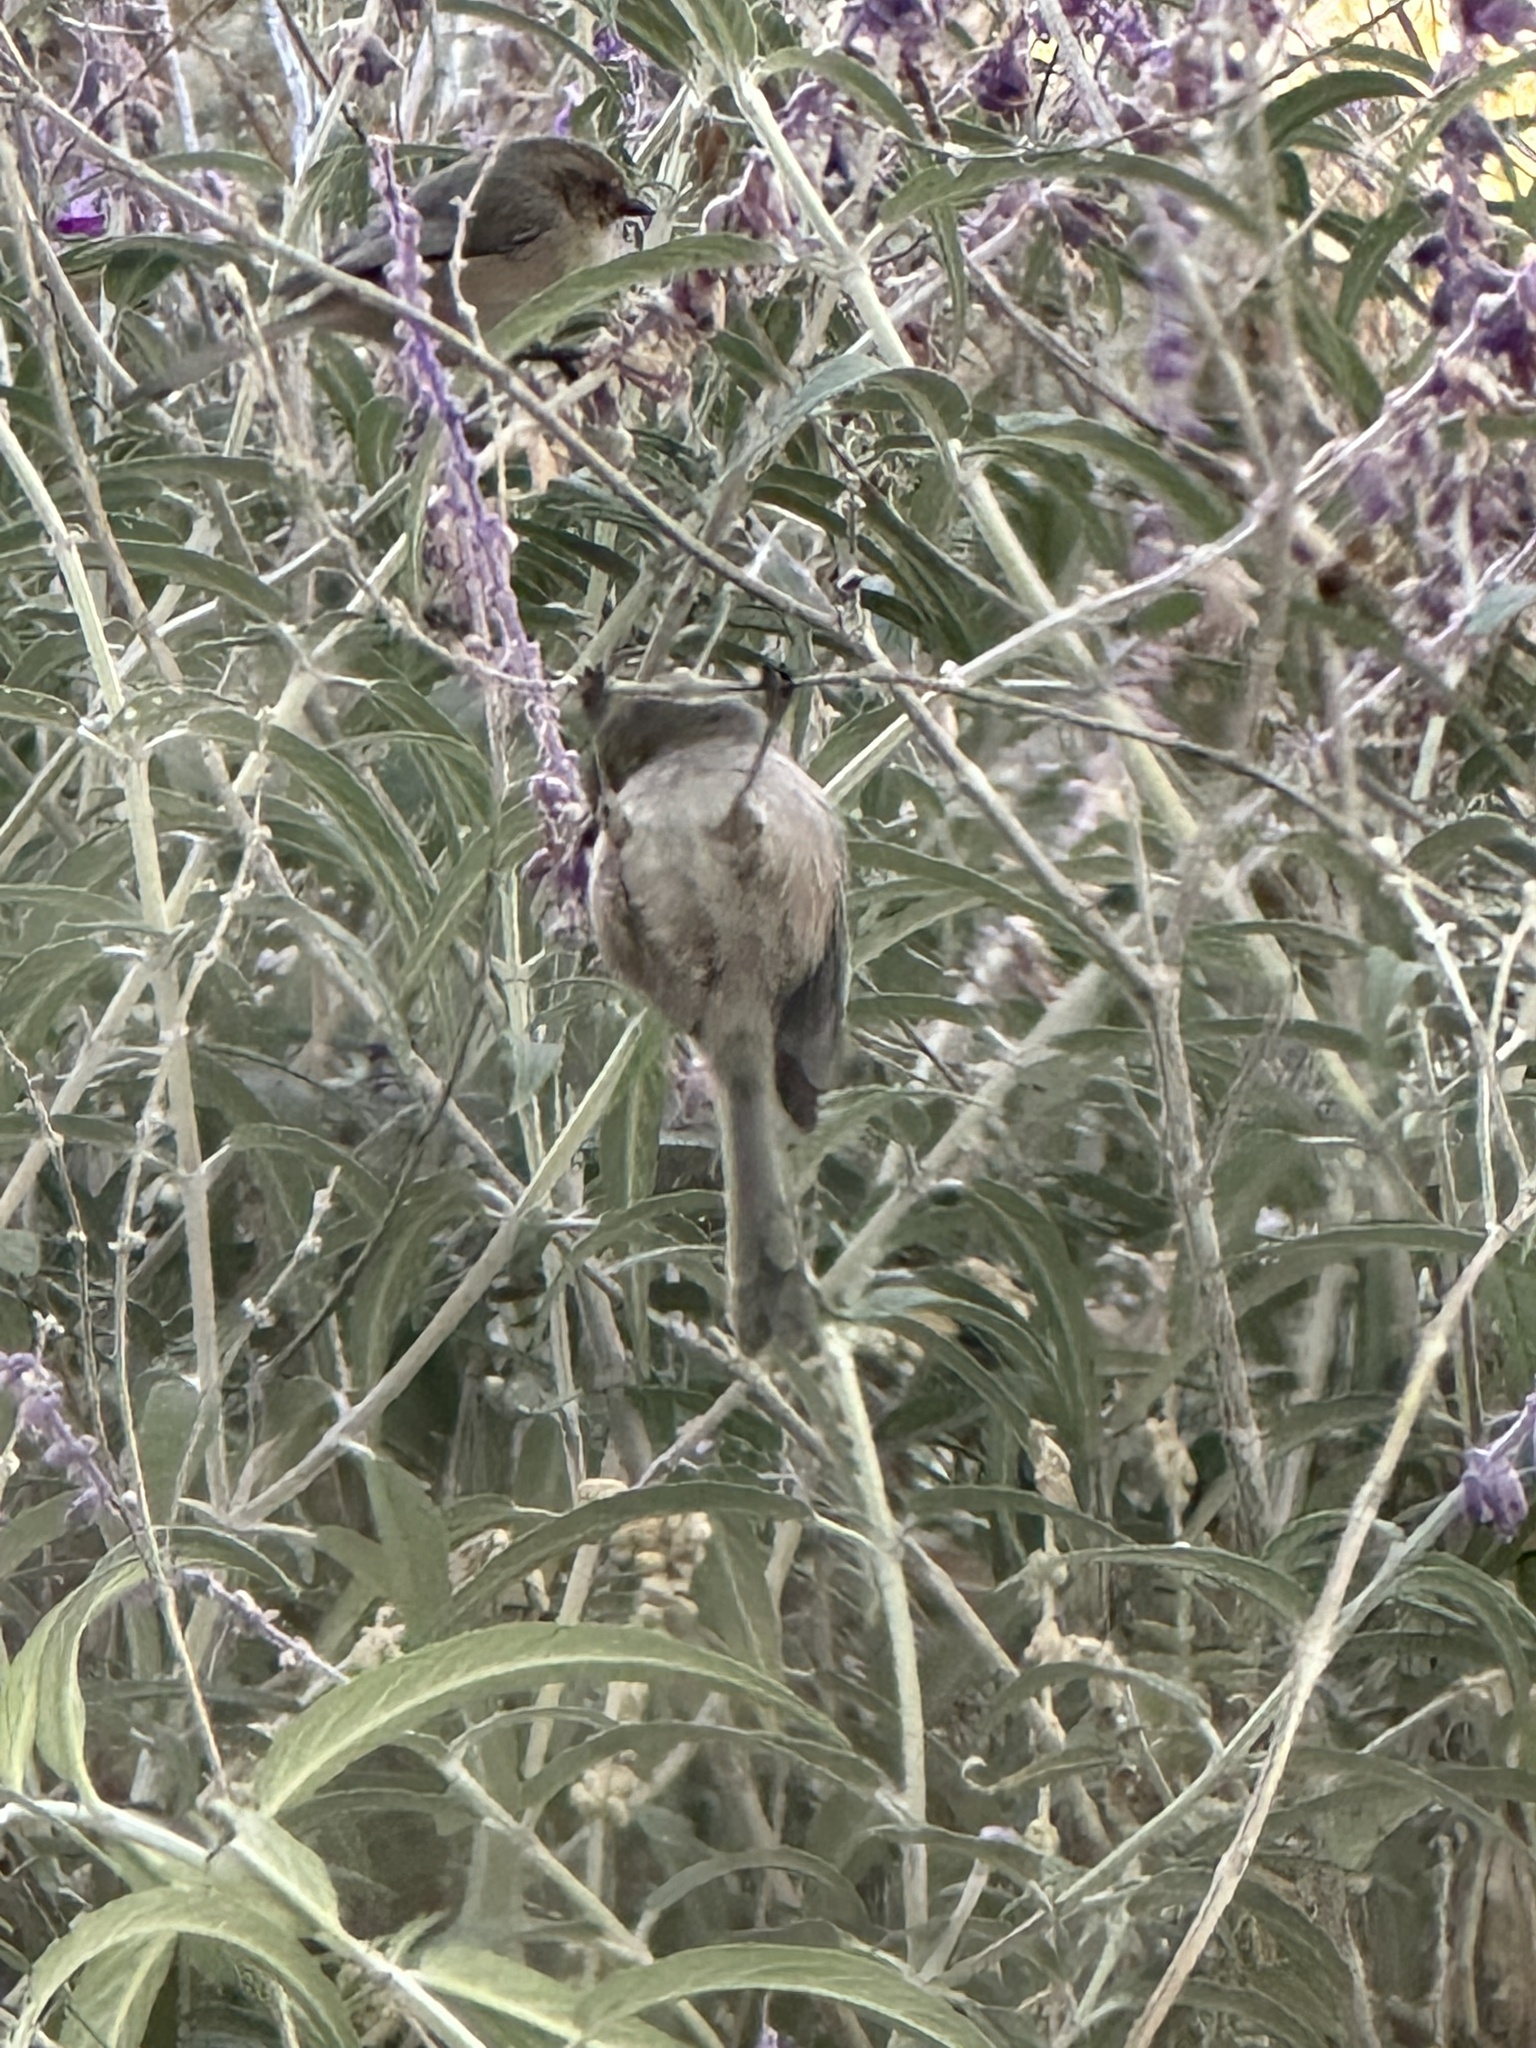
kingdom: Animalia
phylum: Chordata
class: Aves
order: Passeriformes
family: Aegithalidae
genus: Psaltriparus
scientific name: Psaltriparus minimus
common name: American bushtit
